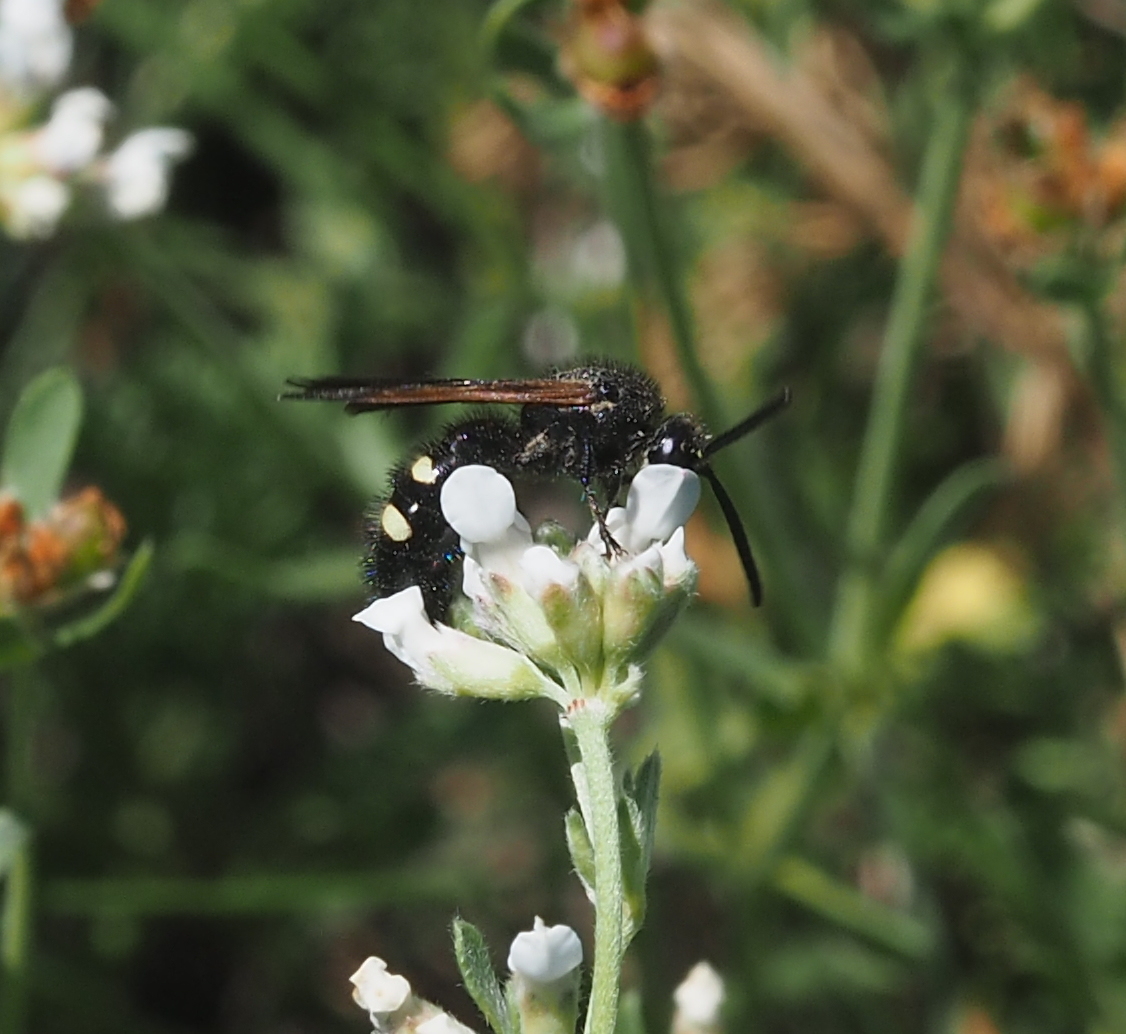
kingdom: Animalia
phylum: Arthropoda
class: Insecta
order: Hymenoptera
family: Vespidae
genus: Vespa
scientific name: Vespa sexmaculata
